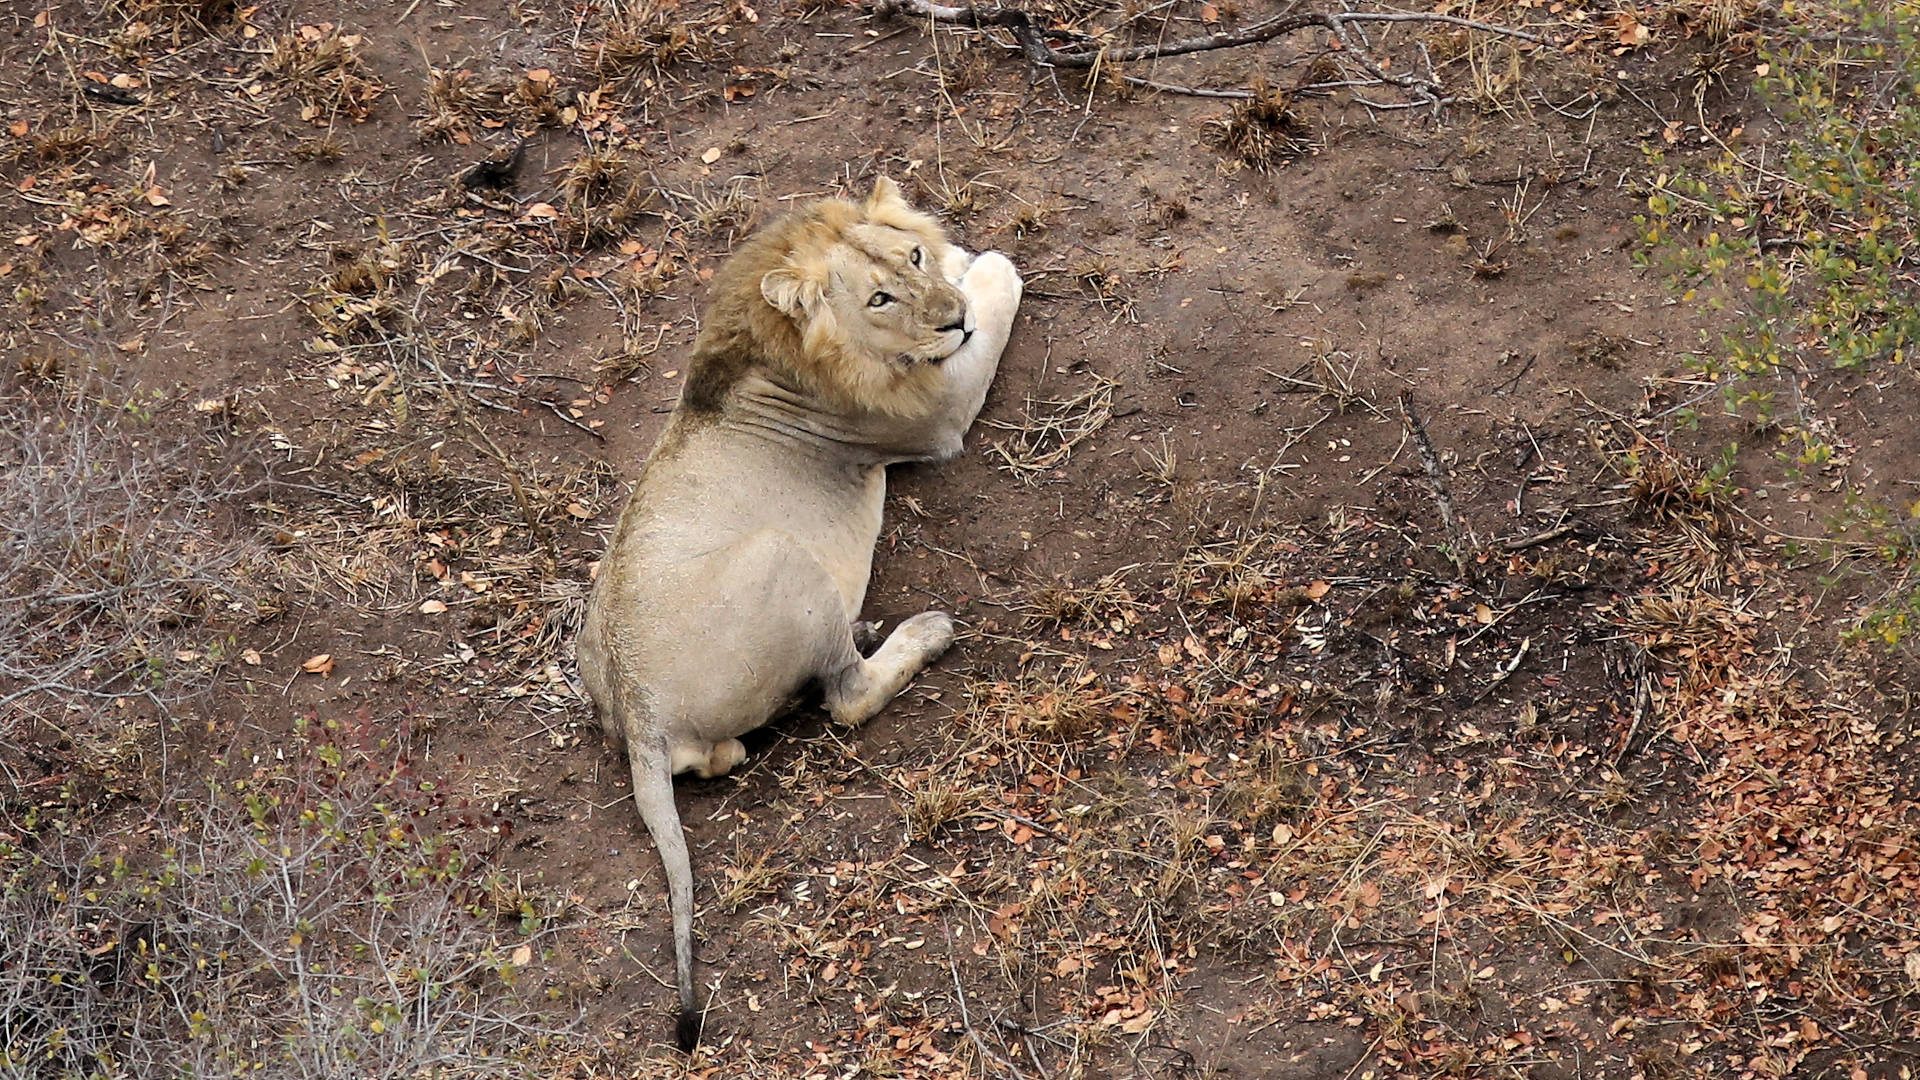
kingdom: Animalia
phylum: Chordata
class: Mammalia
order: Carnivora
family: Felidae
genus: Panthera
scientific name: Panthera leo
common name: Lion
